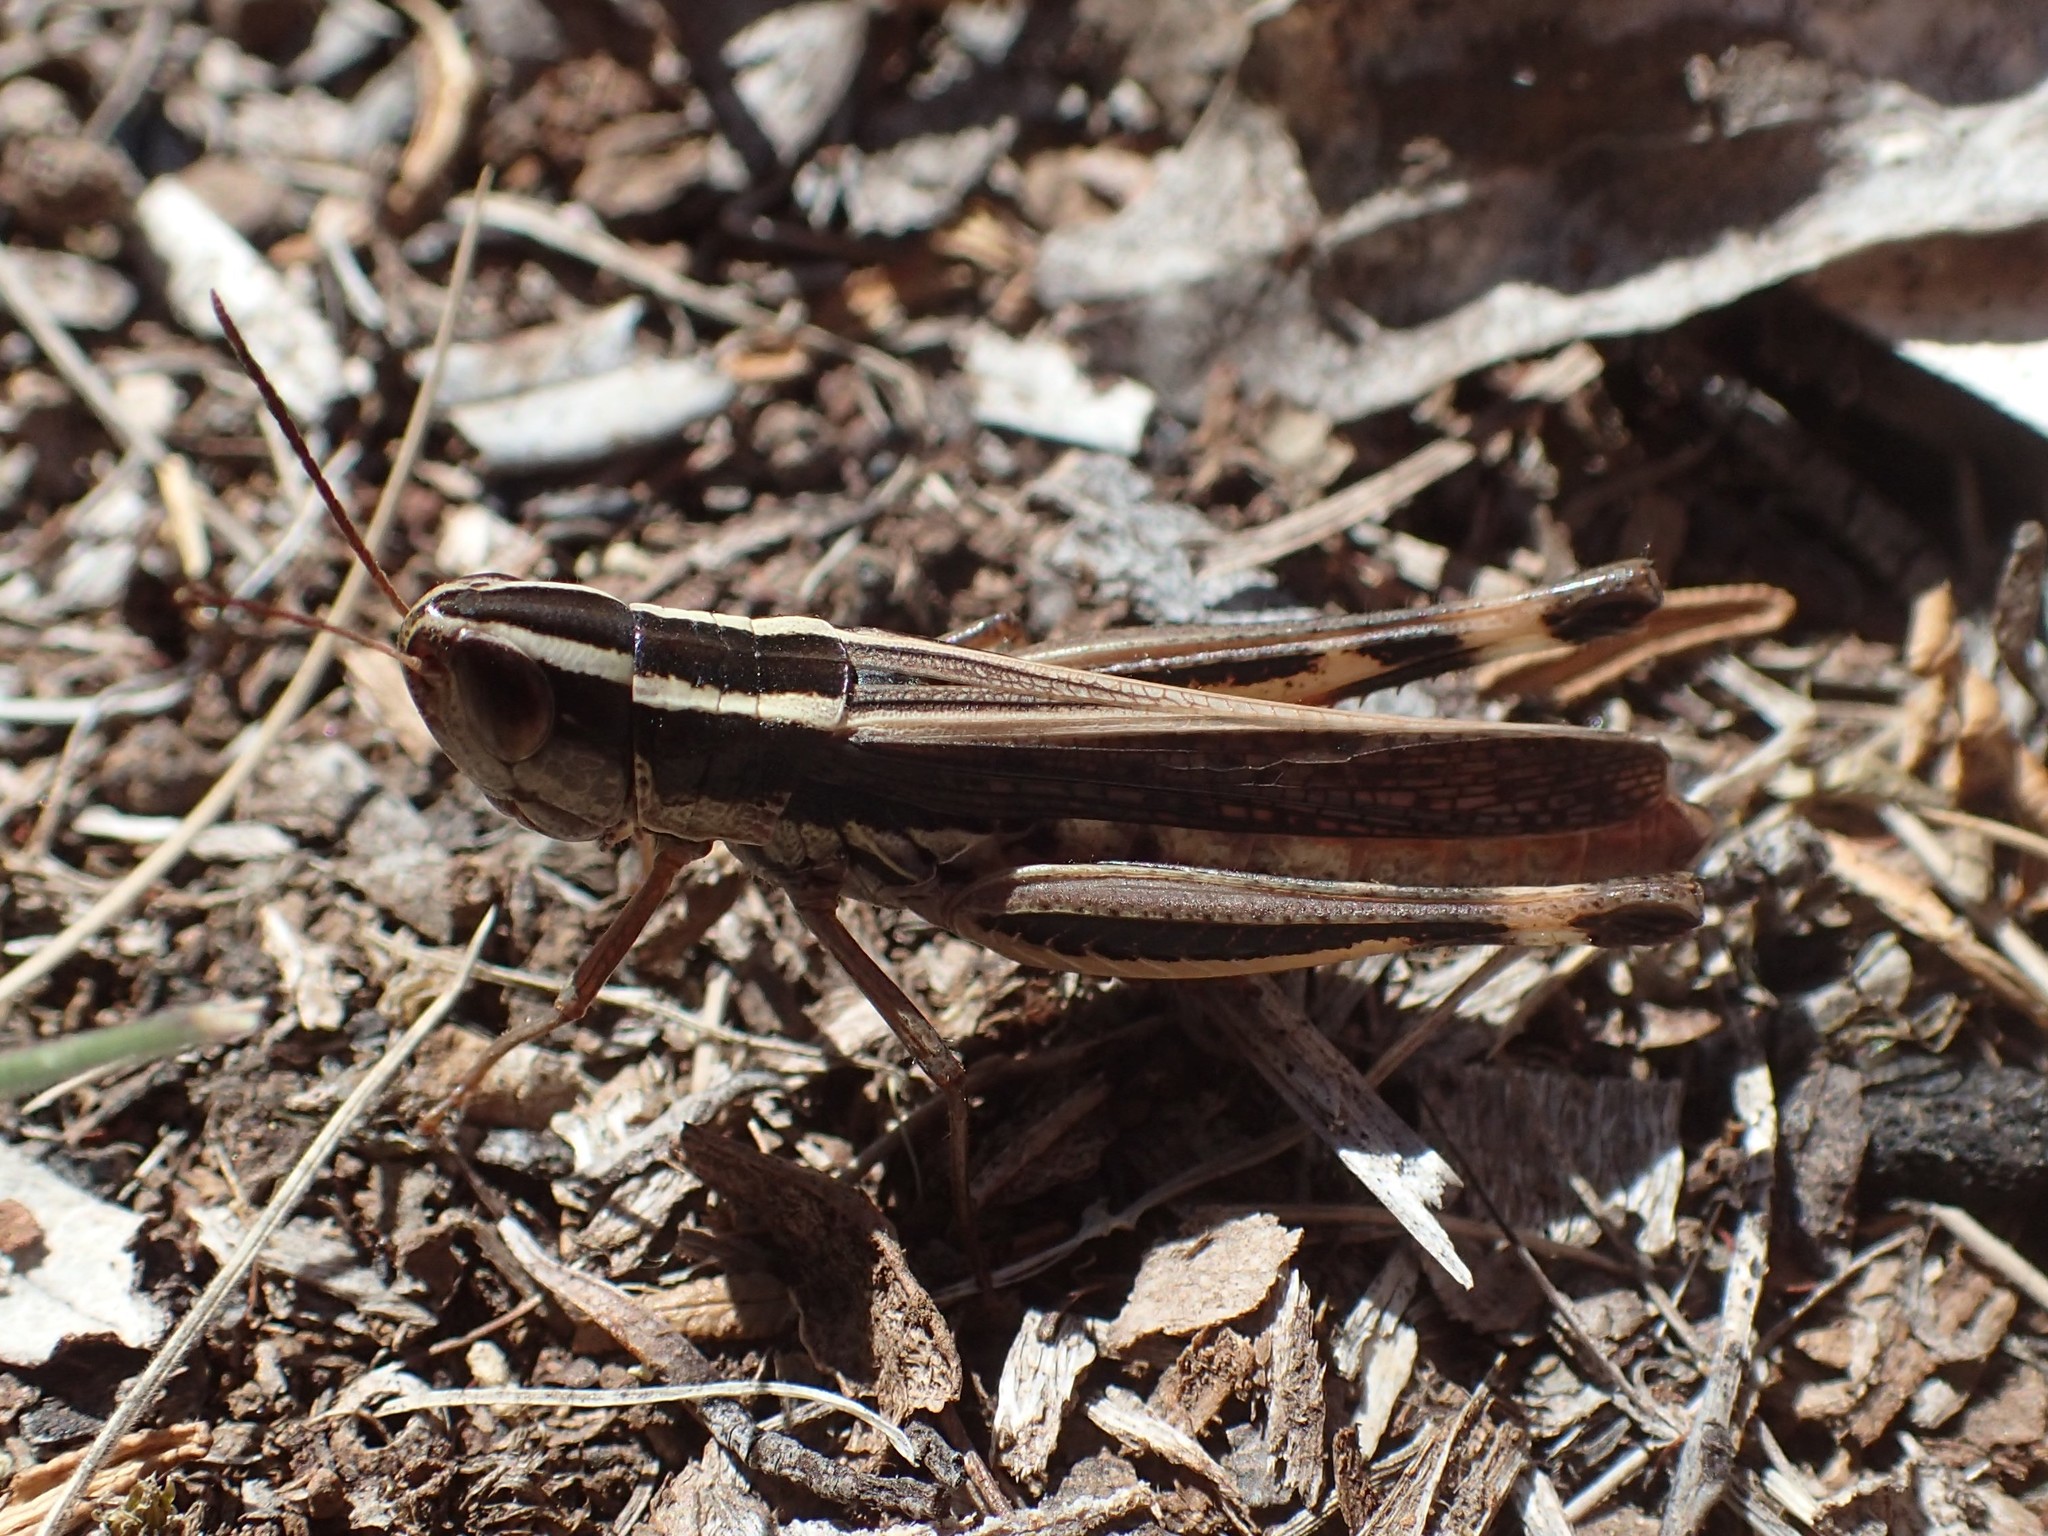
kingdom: Animalia
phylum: Arthropoda
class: Insecta
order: Orthoptera
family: Acrididae
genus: Macrotona
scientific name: Macrotona australis
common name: Common macrotona
